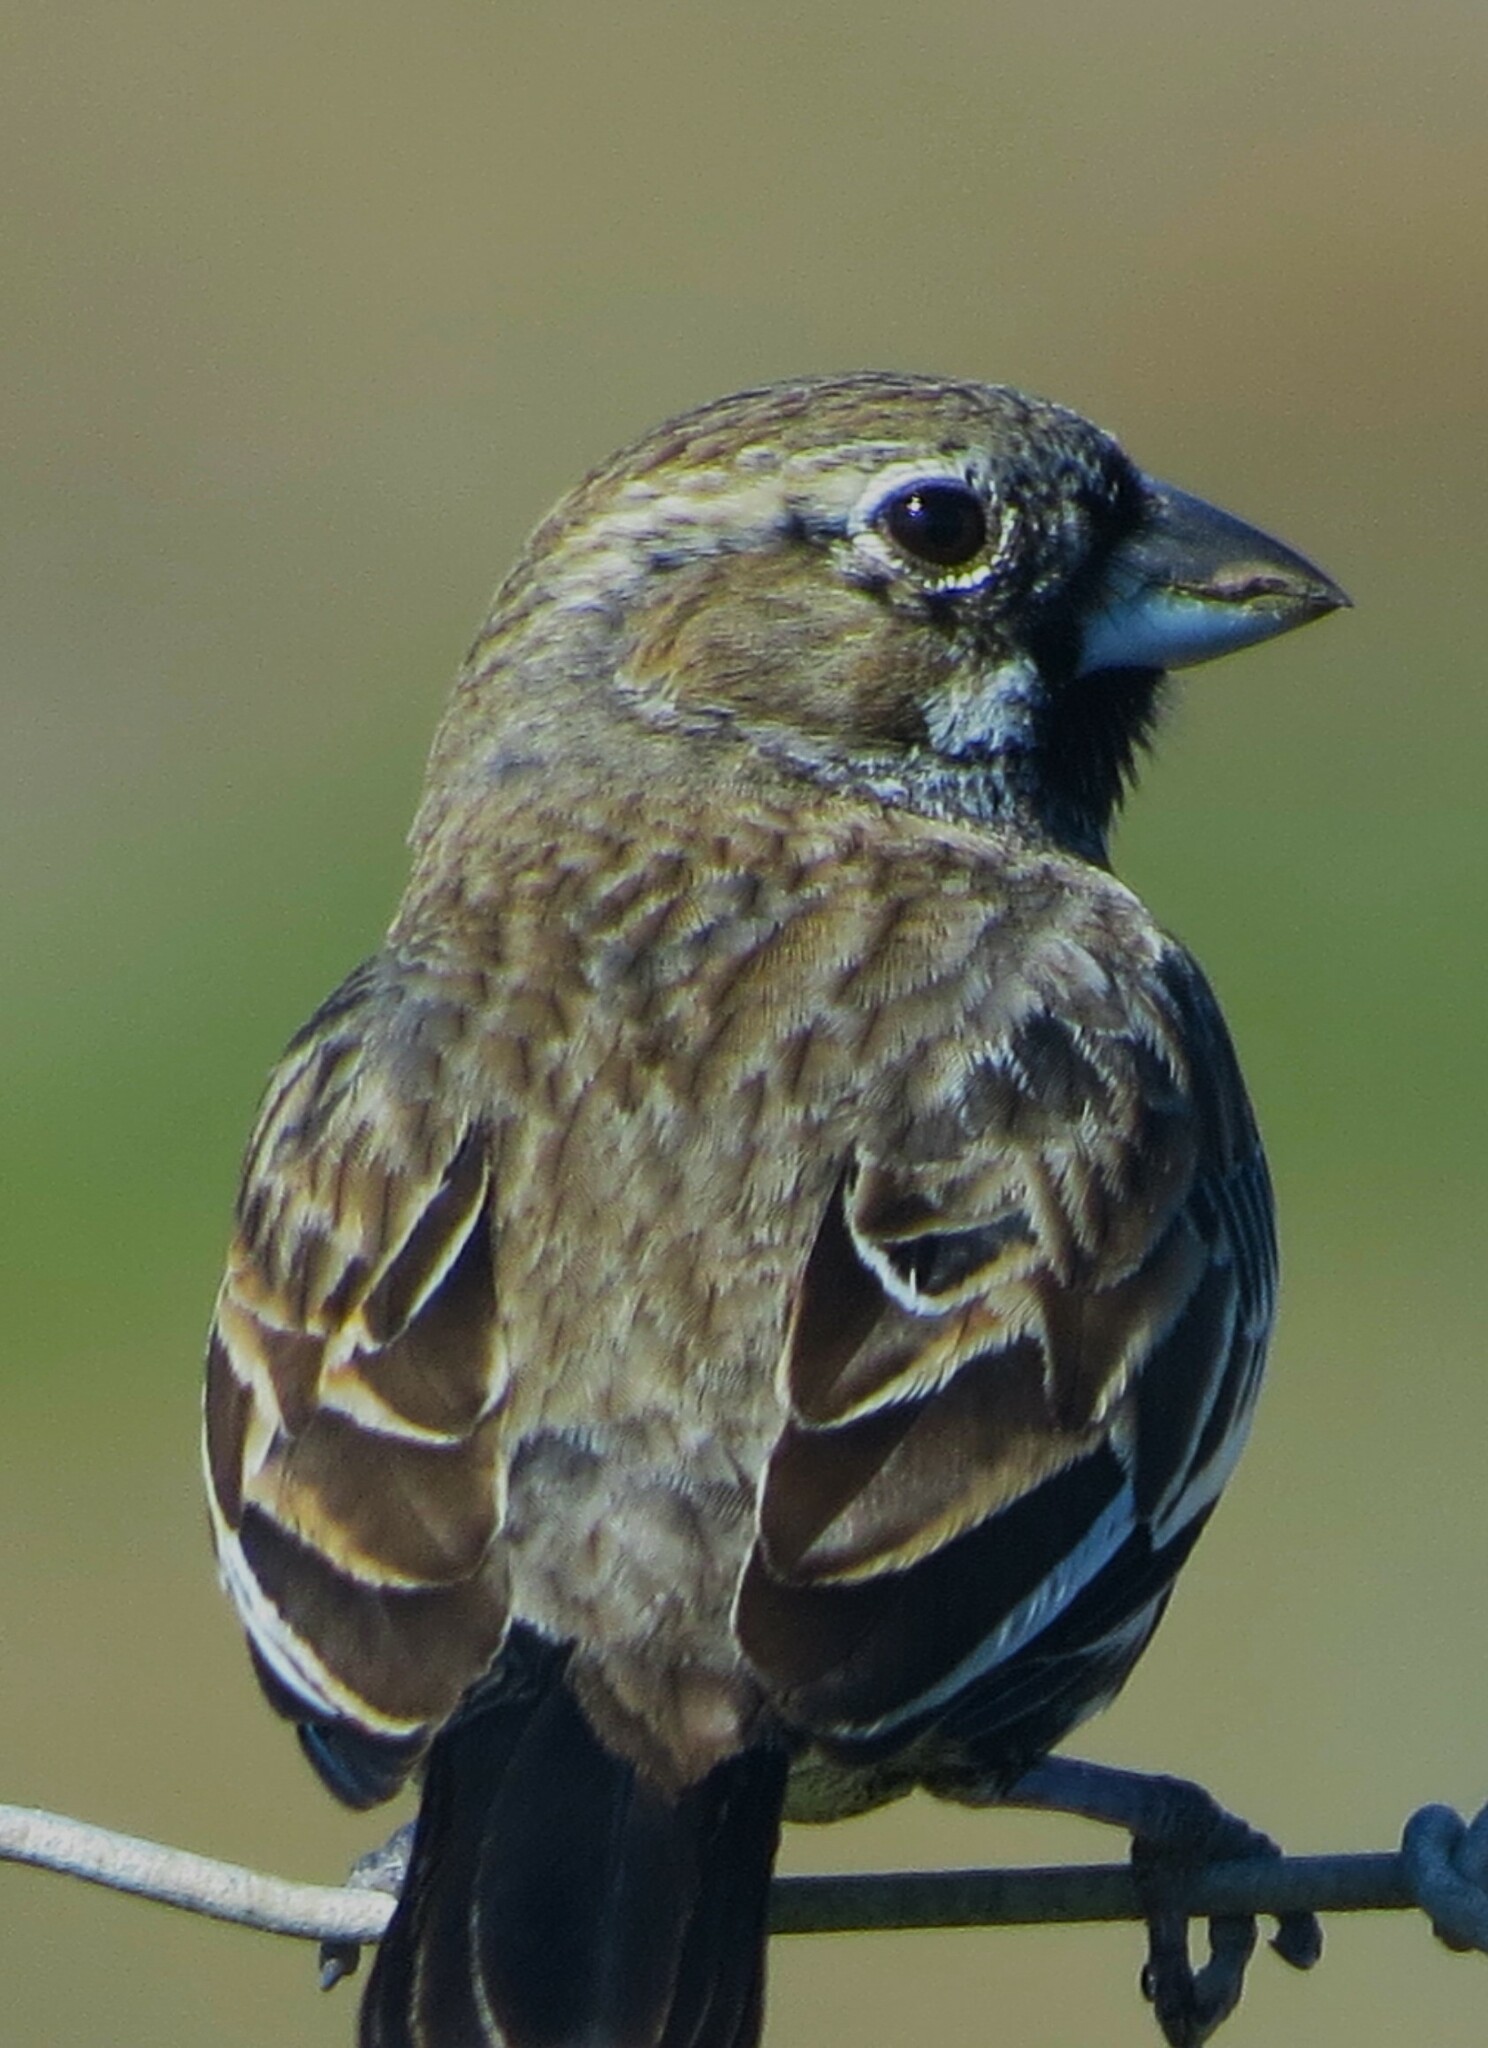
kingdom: Animalia
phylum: Chordata
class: Aves
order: Passeriformes
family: Passerellidae
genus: Calamospiza
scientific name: Calamospiza melanocorys
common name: Lark bunting
